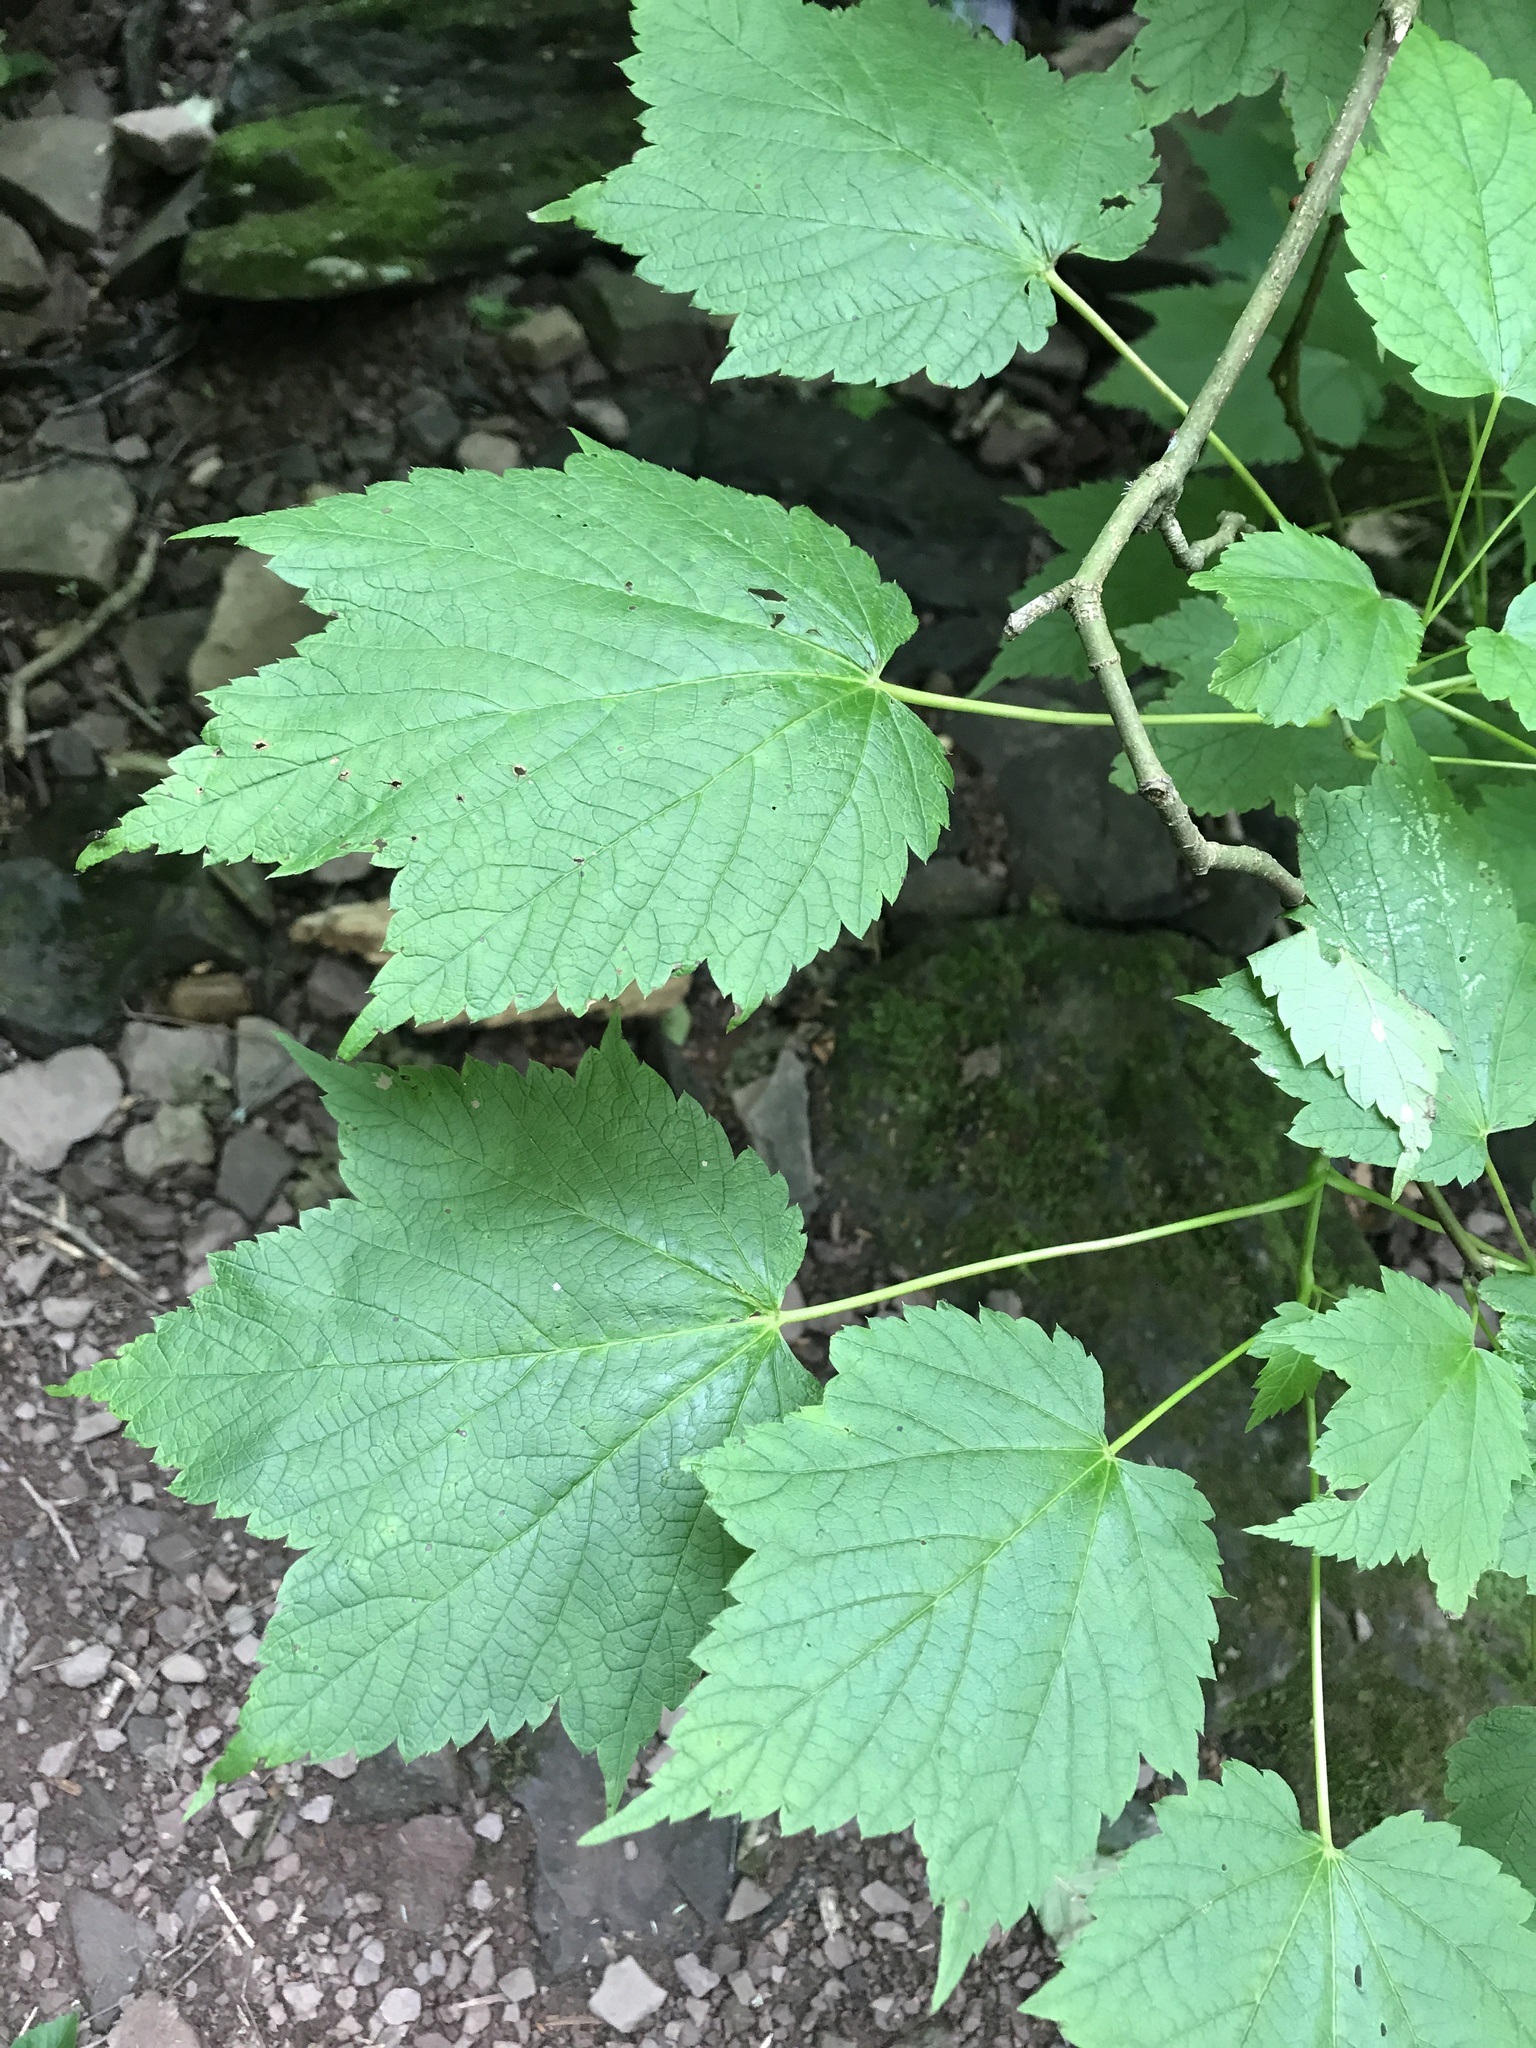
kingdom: Plantae
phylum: Tracheophyta
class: Magnoliopsida
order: Sapindales
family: Sapindaceae
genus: Acer
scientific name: Acer spicatum
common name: Mountain maple
